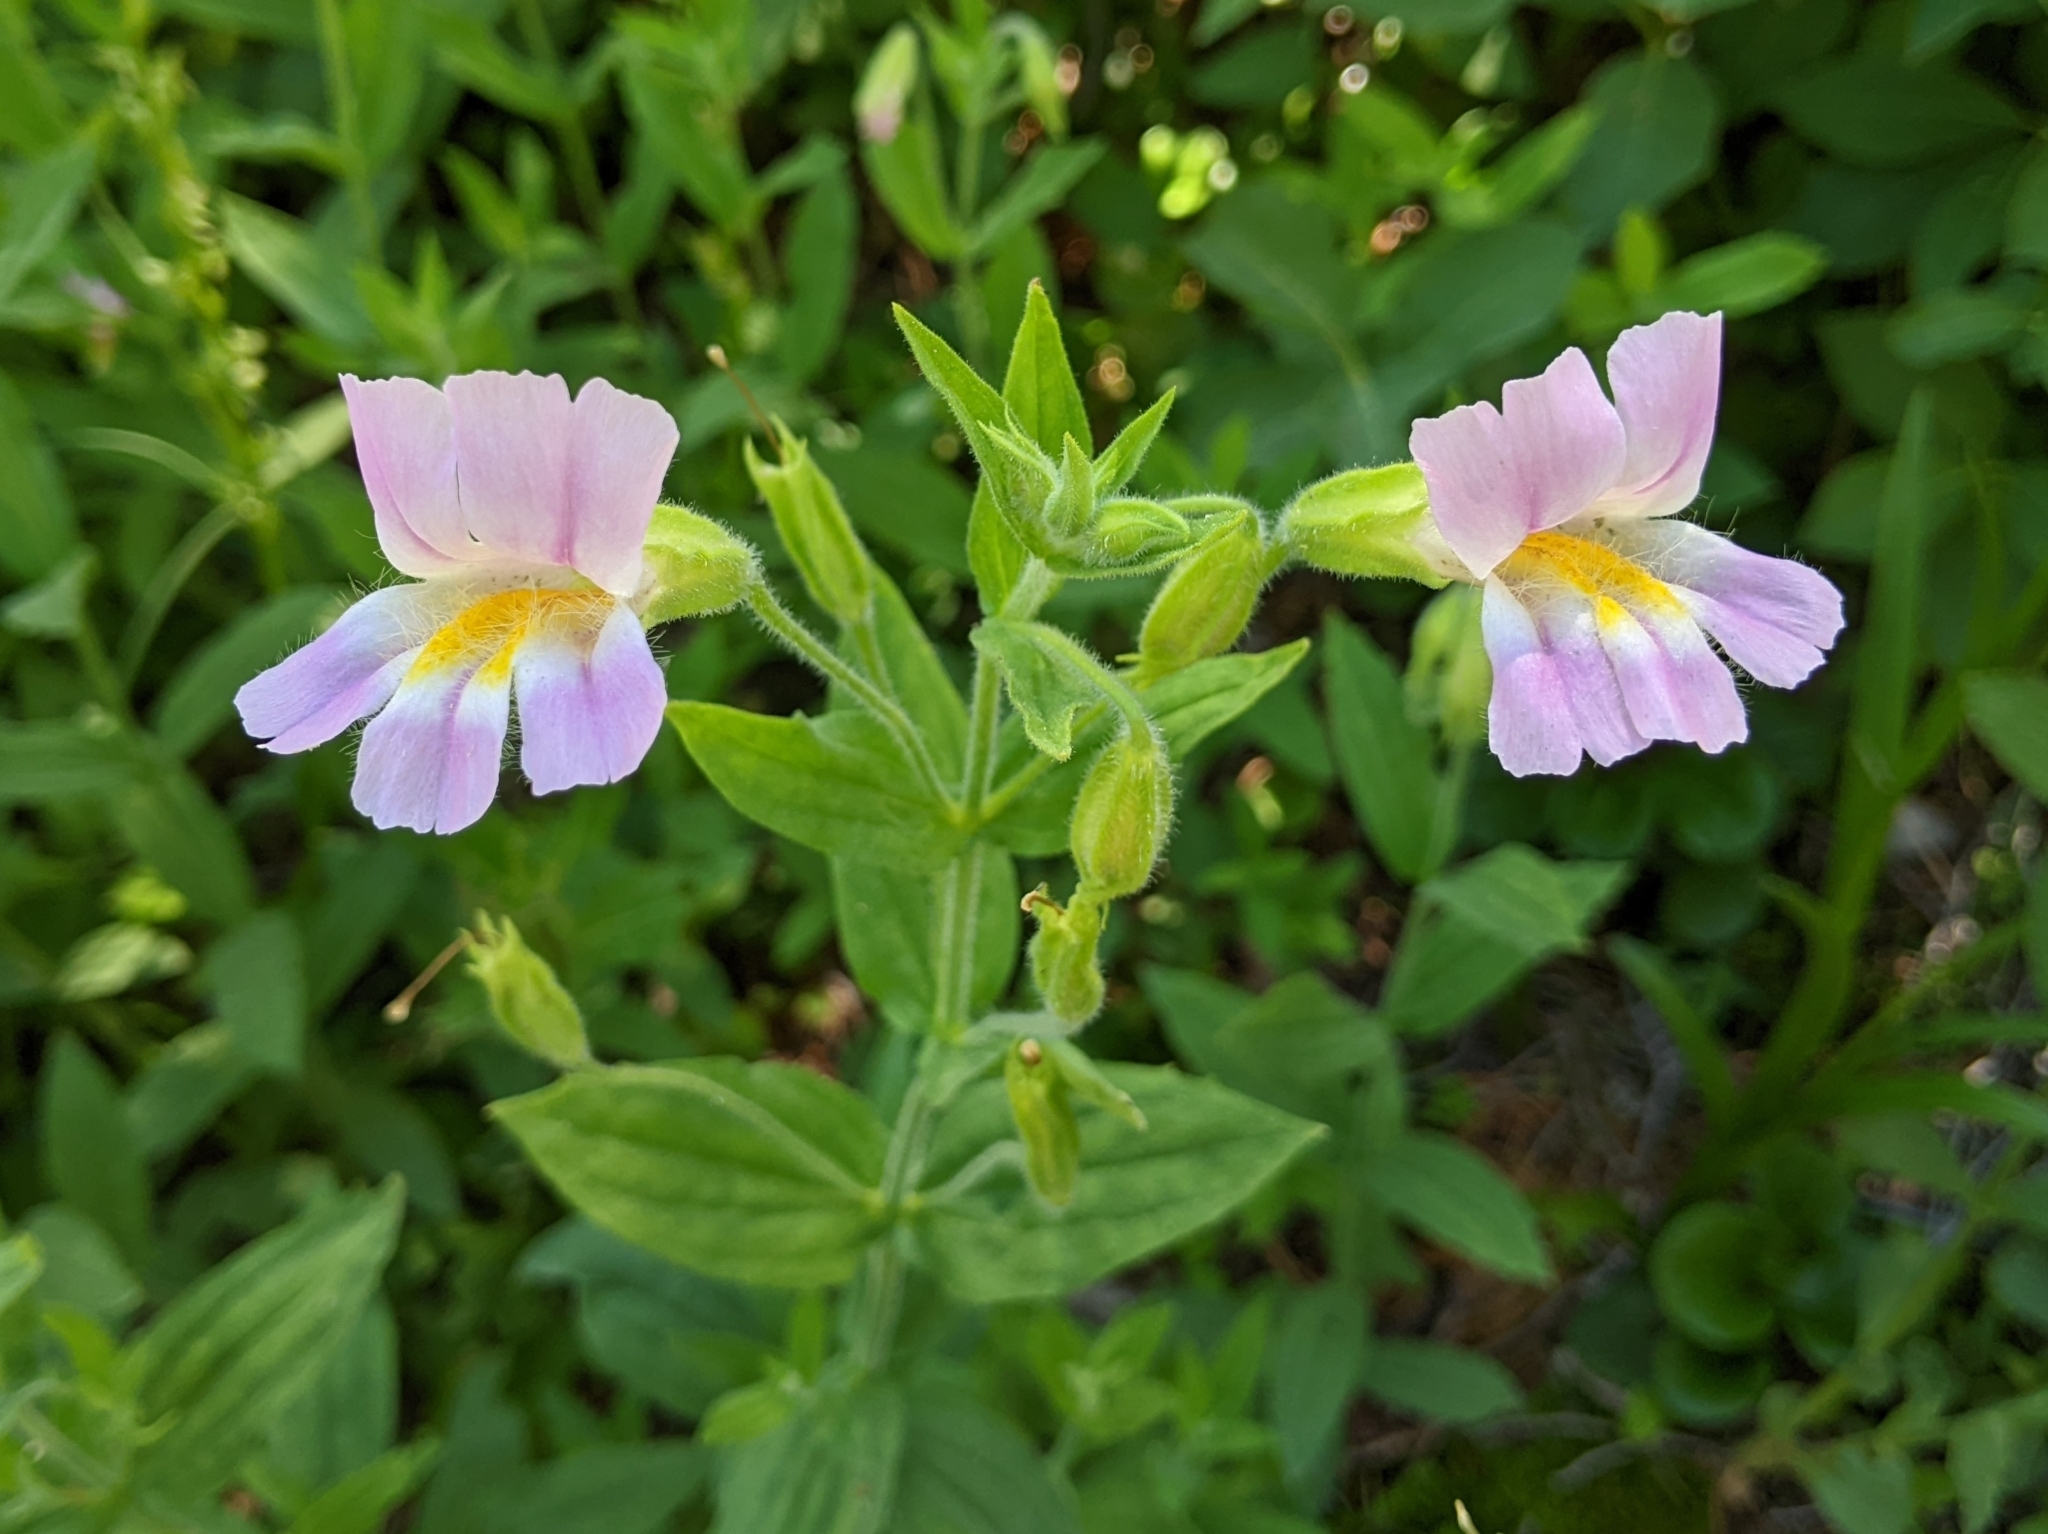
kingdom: Plantae
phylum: Tracheophyta
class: Magnoliopsida
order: Lamiales
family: Phrymaceae
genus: Erythranthe
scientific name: Erythranthe erubescens
